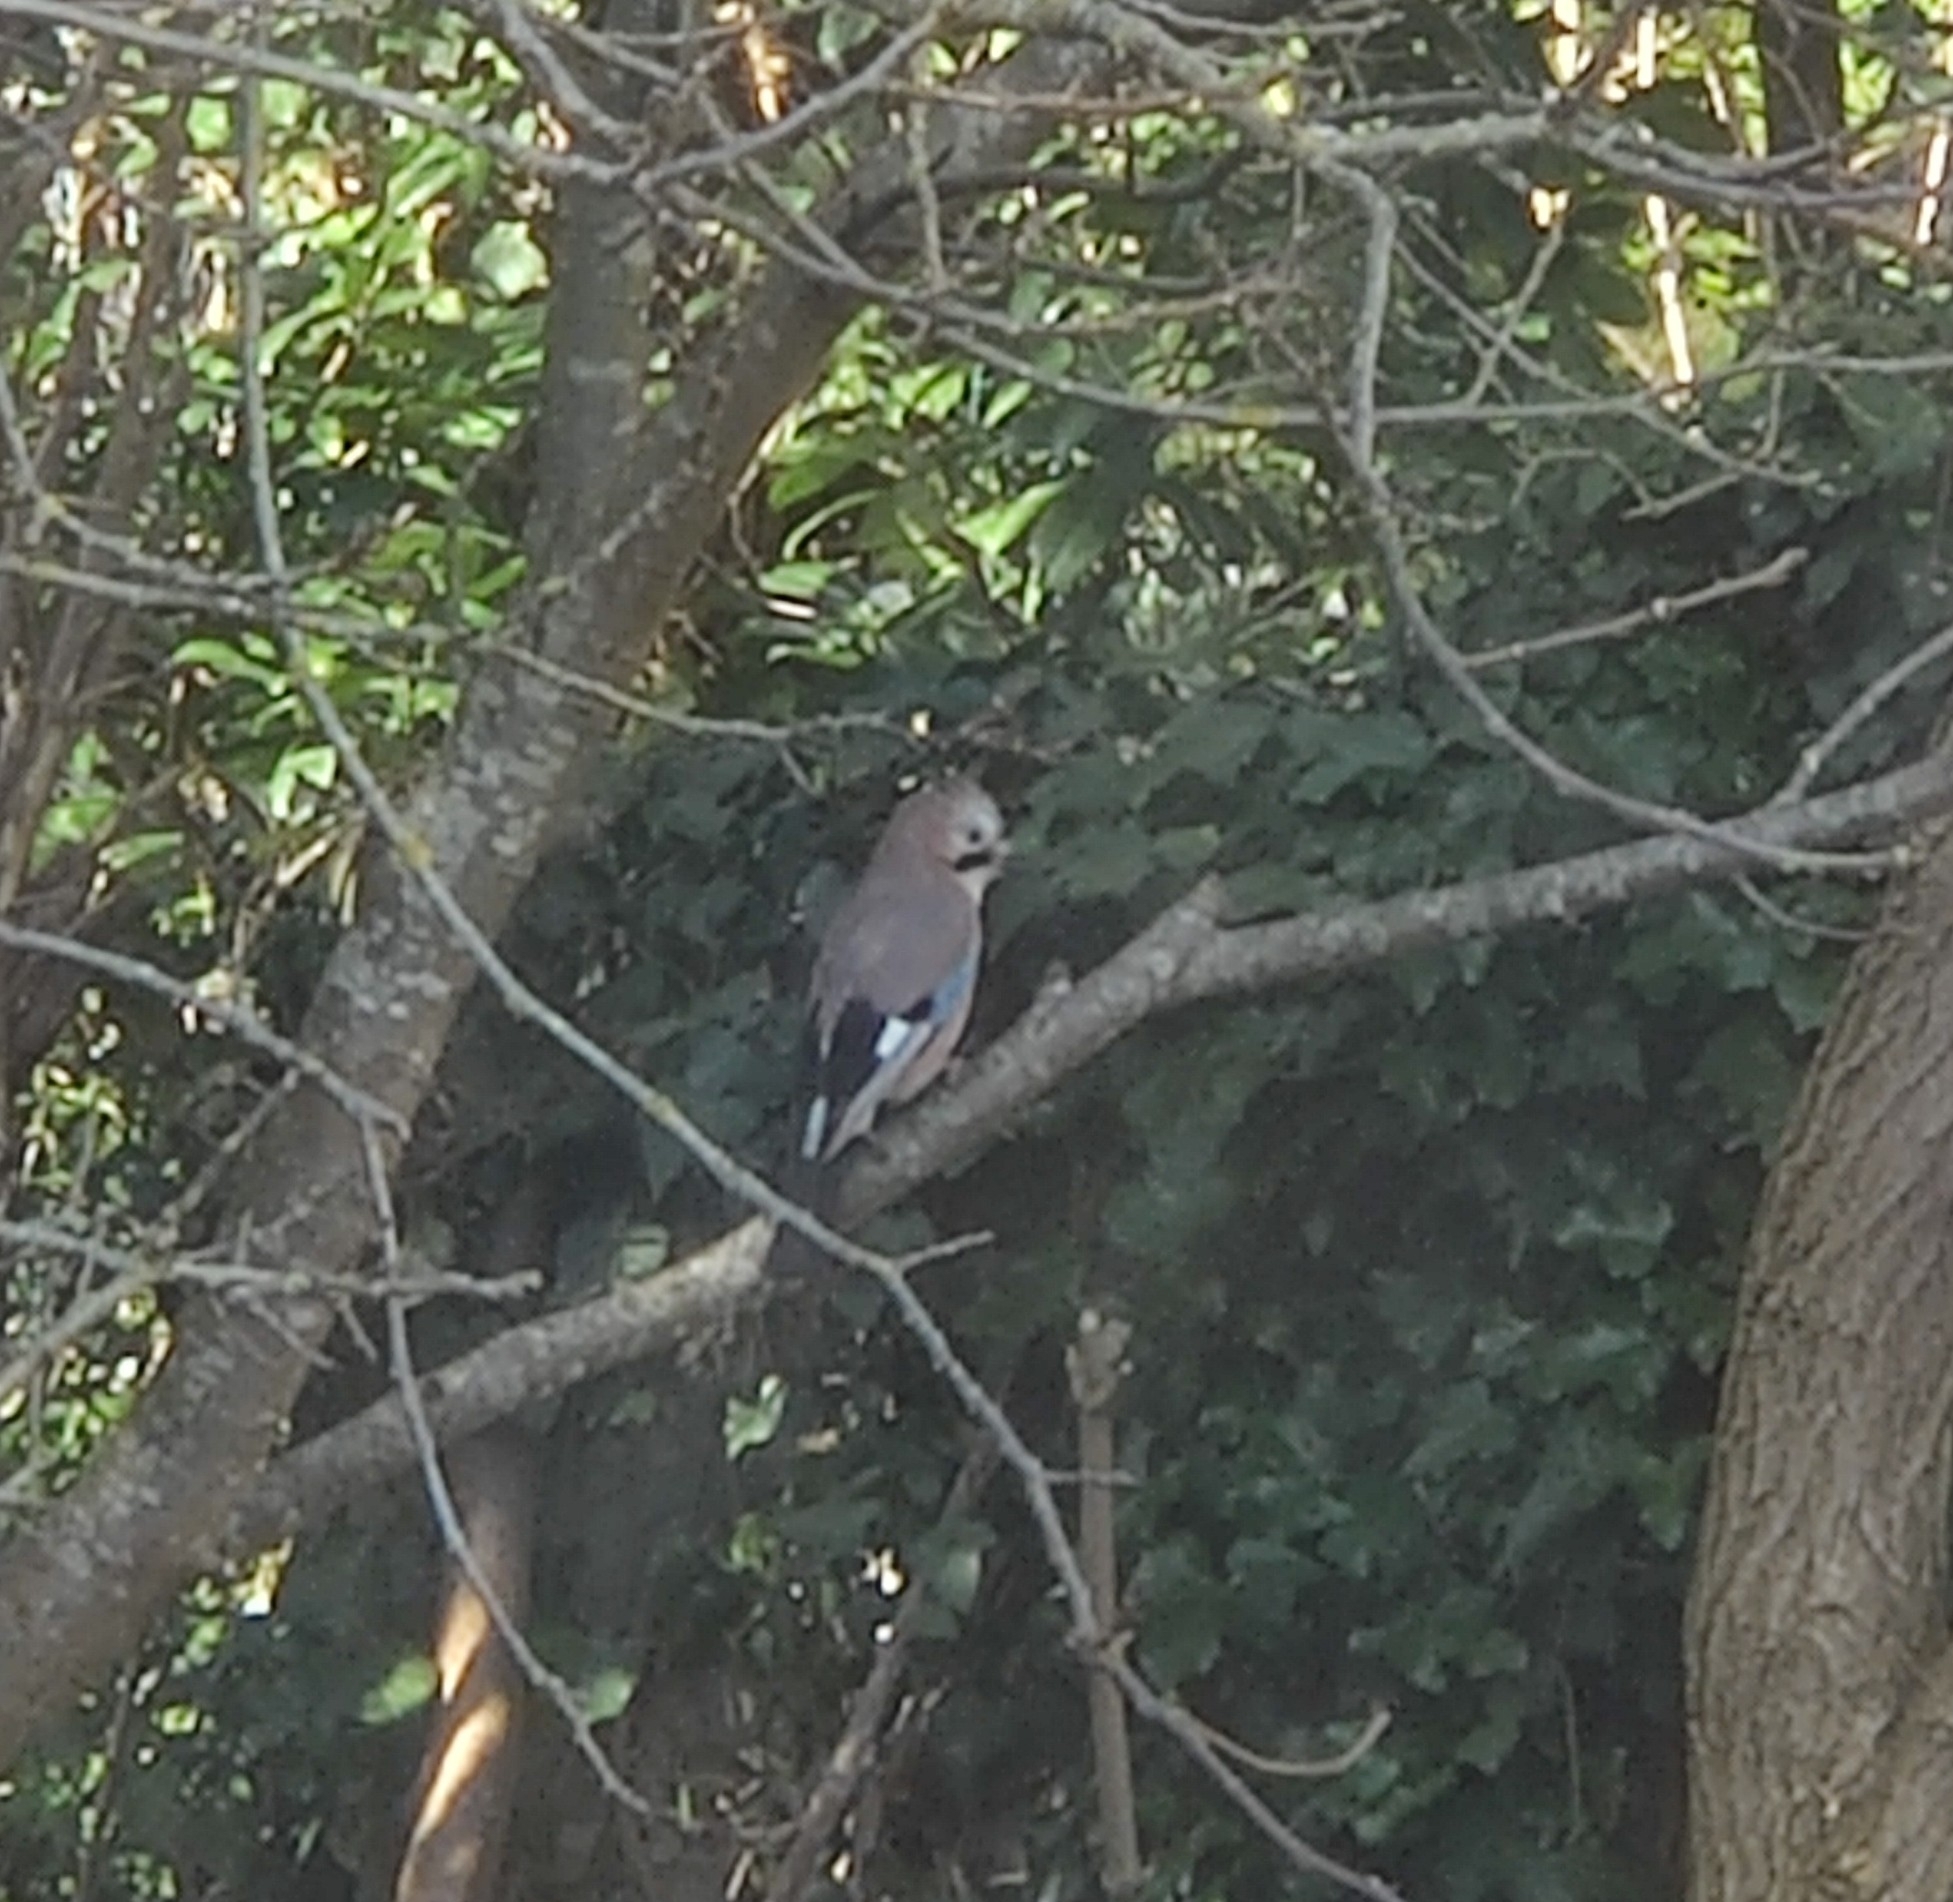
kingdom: Animalia
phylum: Chordata
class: Aves
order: Passeriformes
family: Corvidae
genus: Garrulus
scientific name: Garrulus glandarius
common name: Eurasian jay
